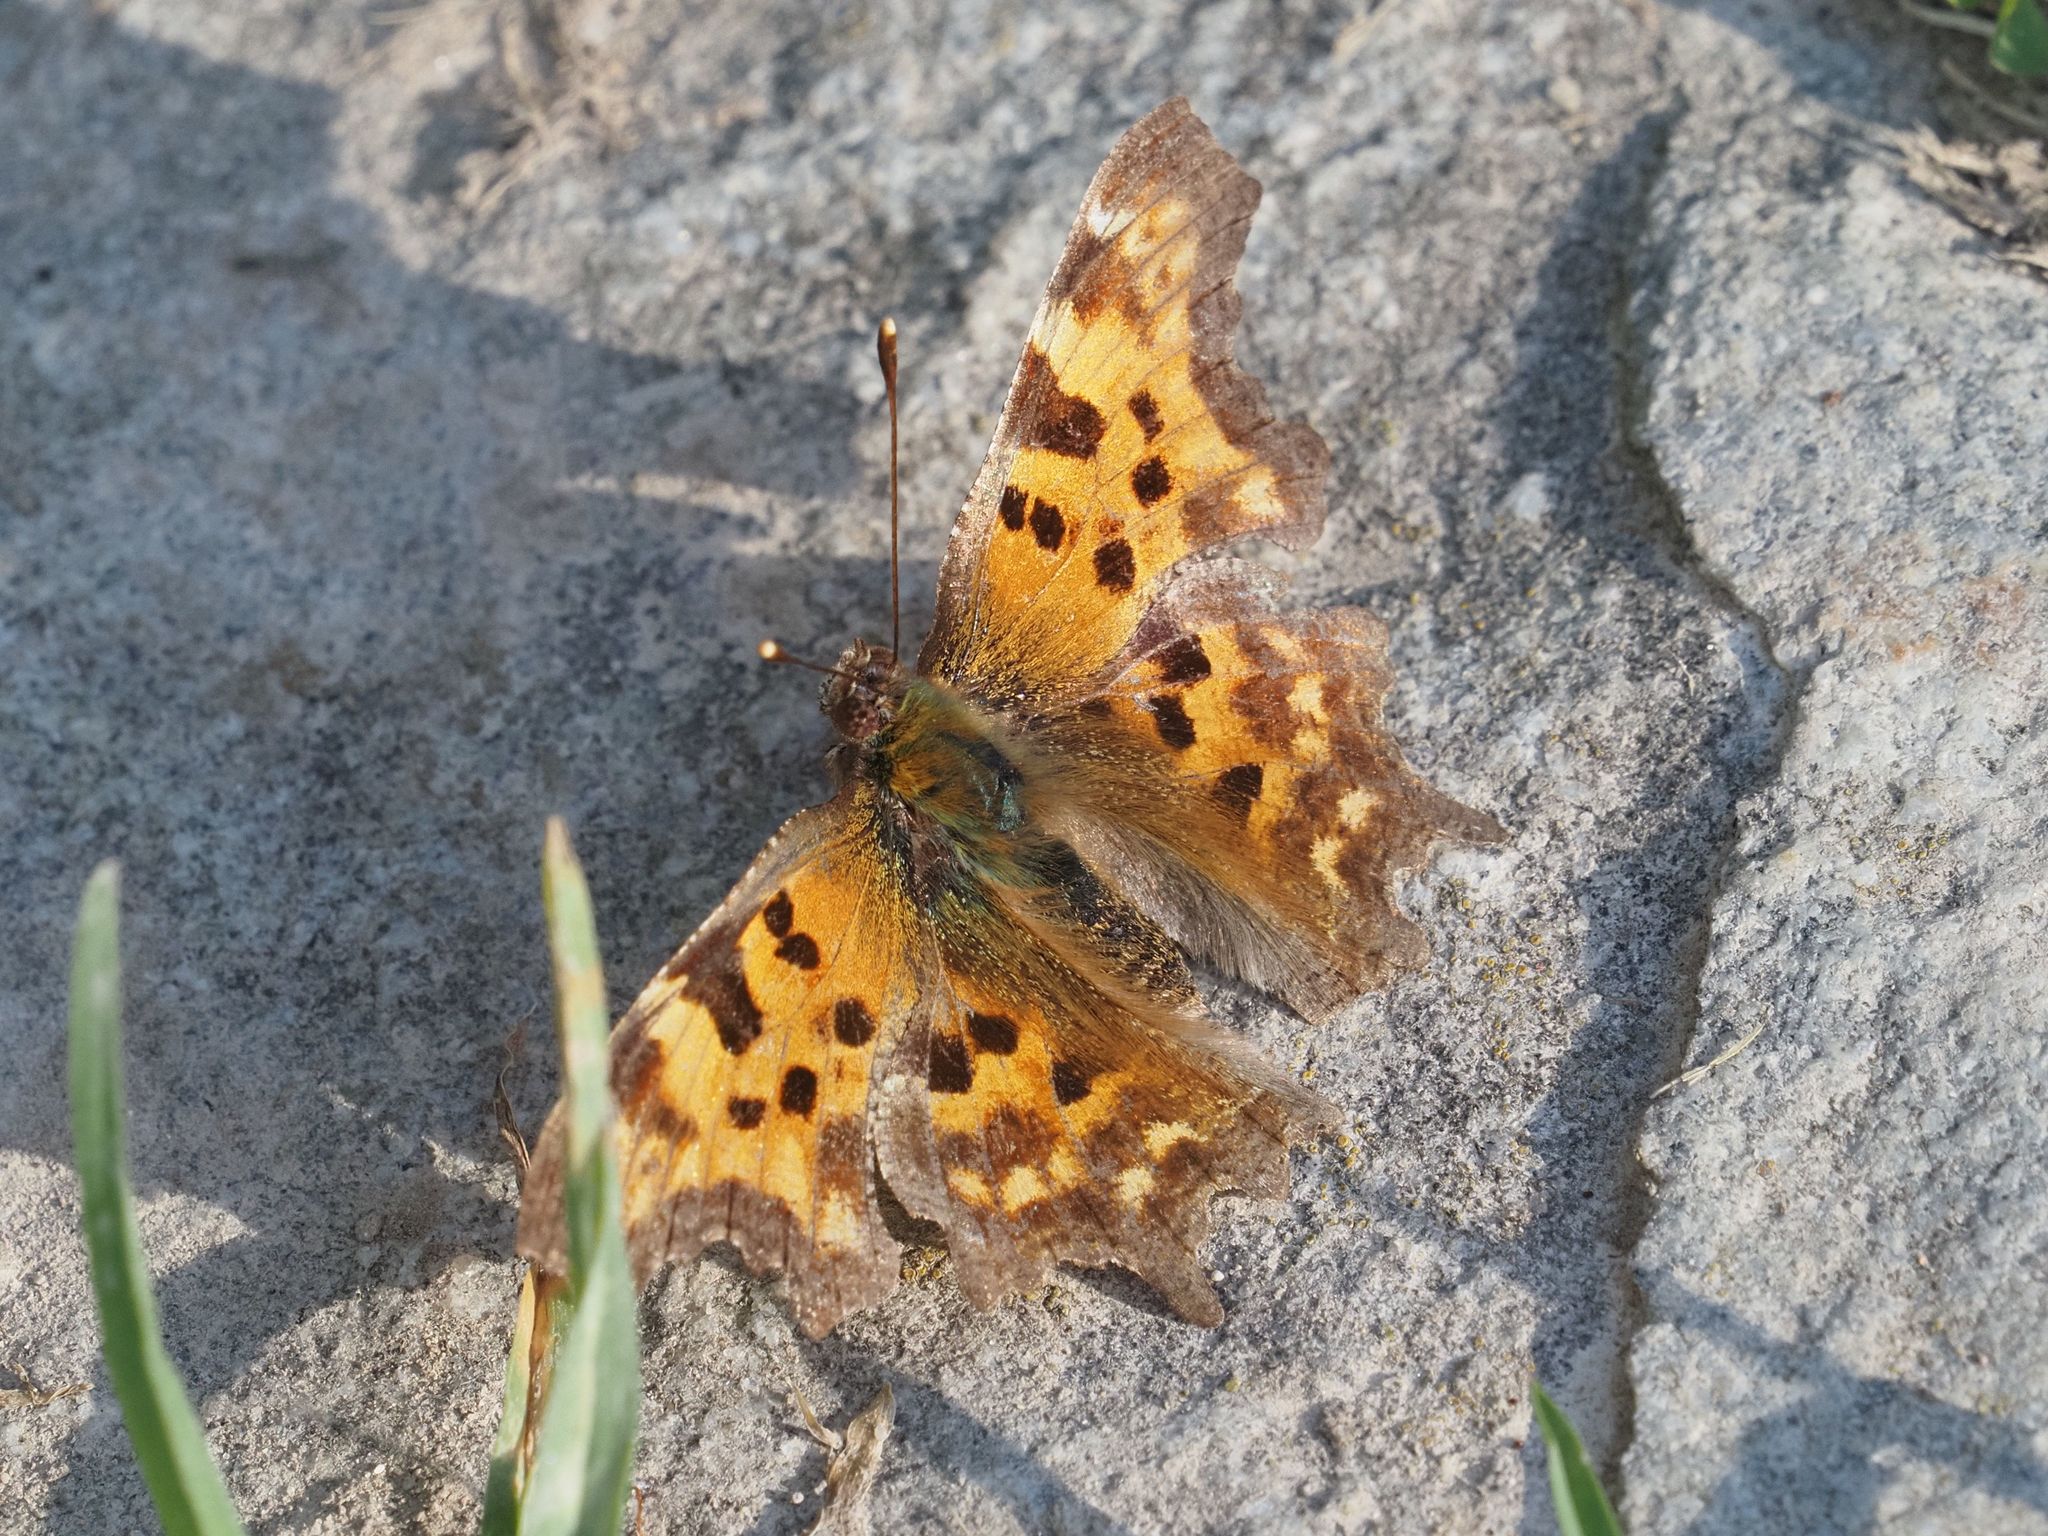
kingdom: Animalia
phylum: Arthropoda
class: Insecta
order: Lepidoptera
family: Nymphalidae
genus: Polygonia
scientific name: Polygonia c-album
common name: Comma
